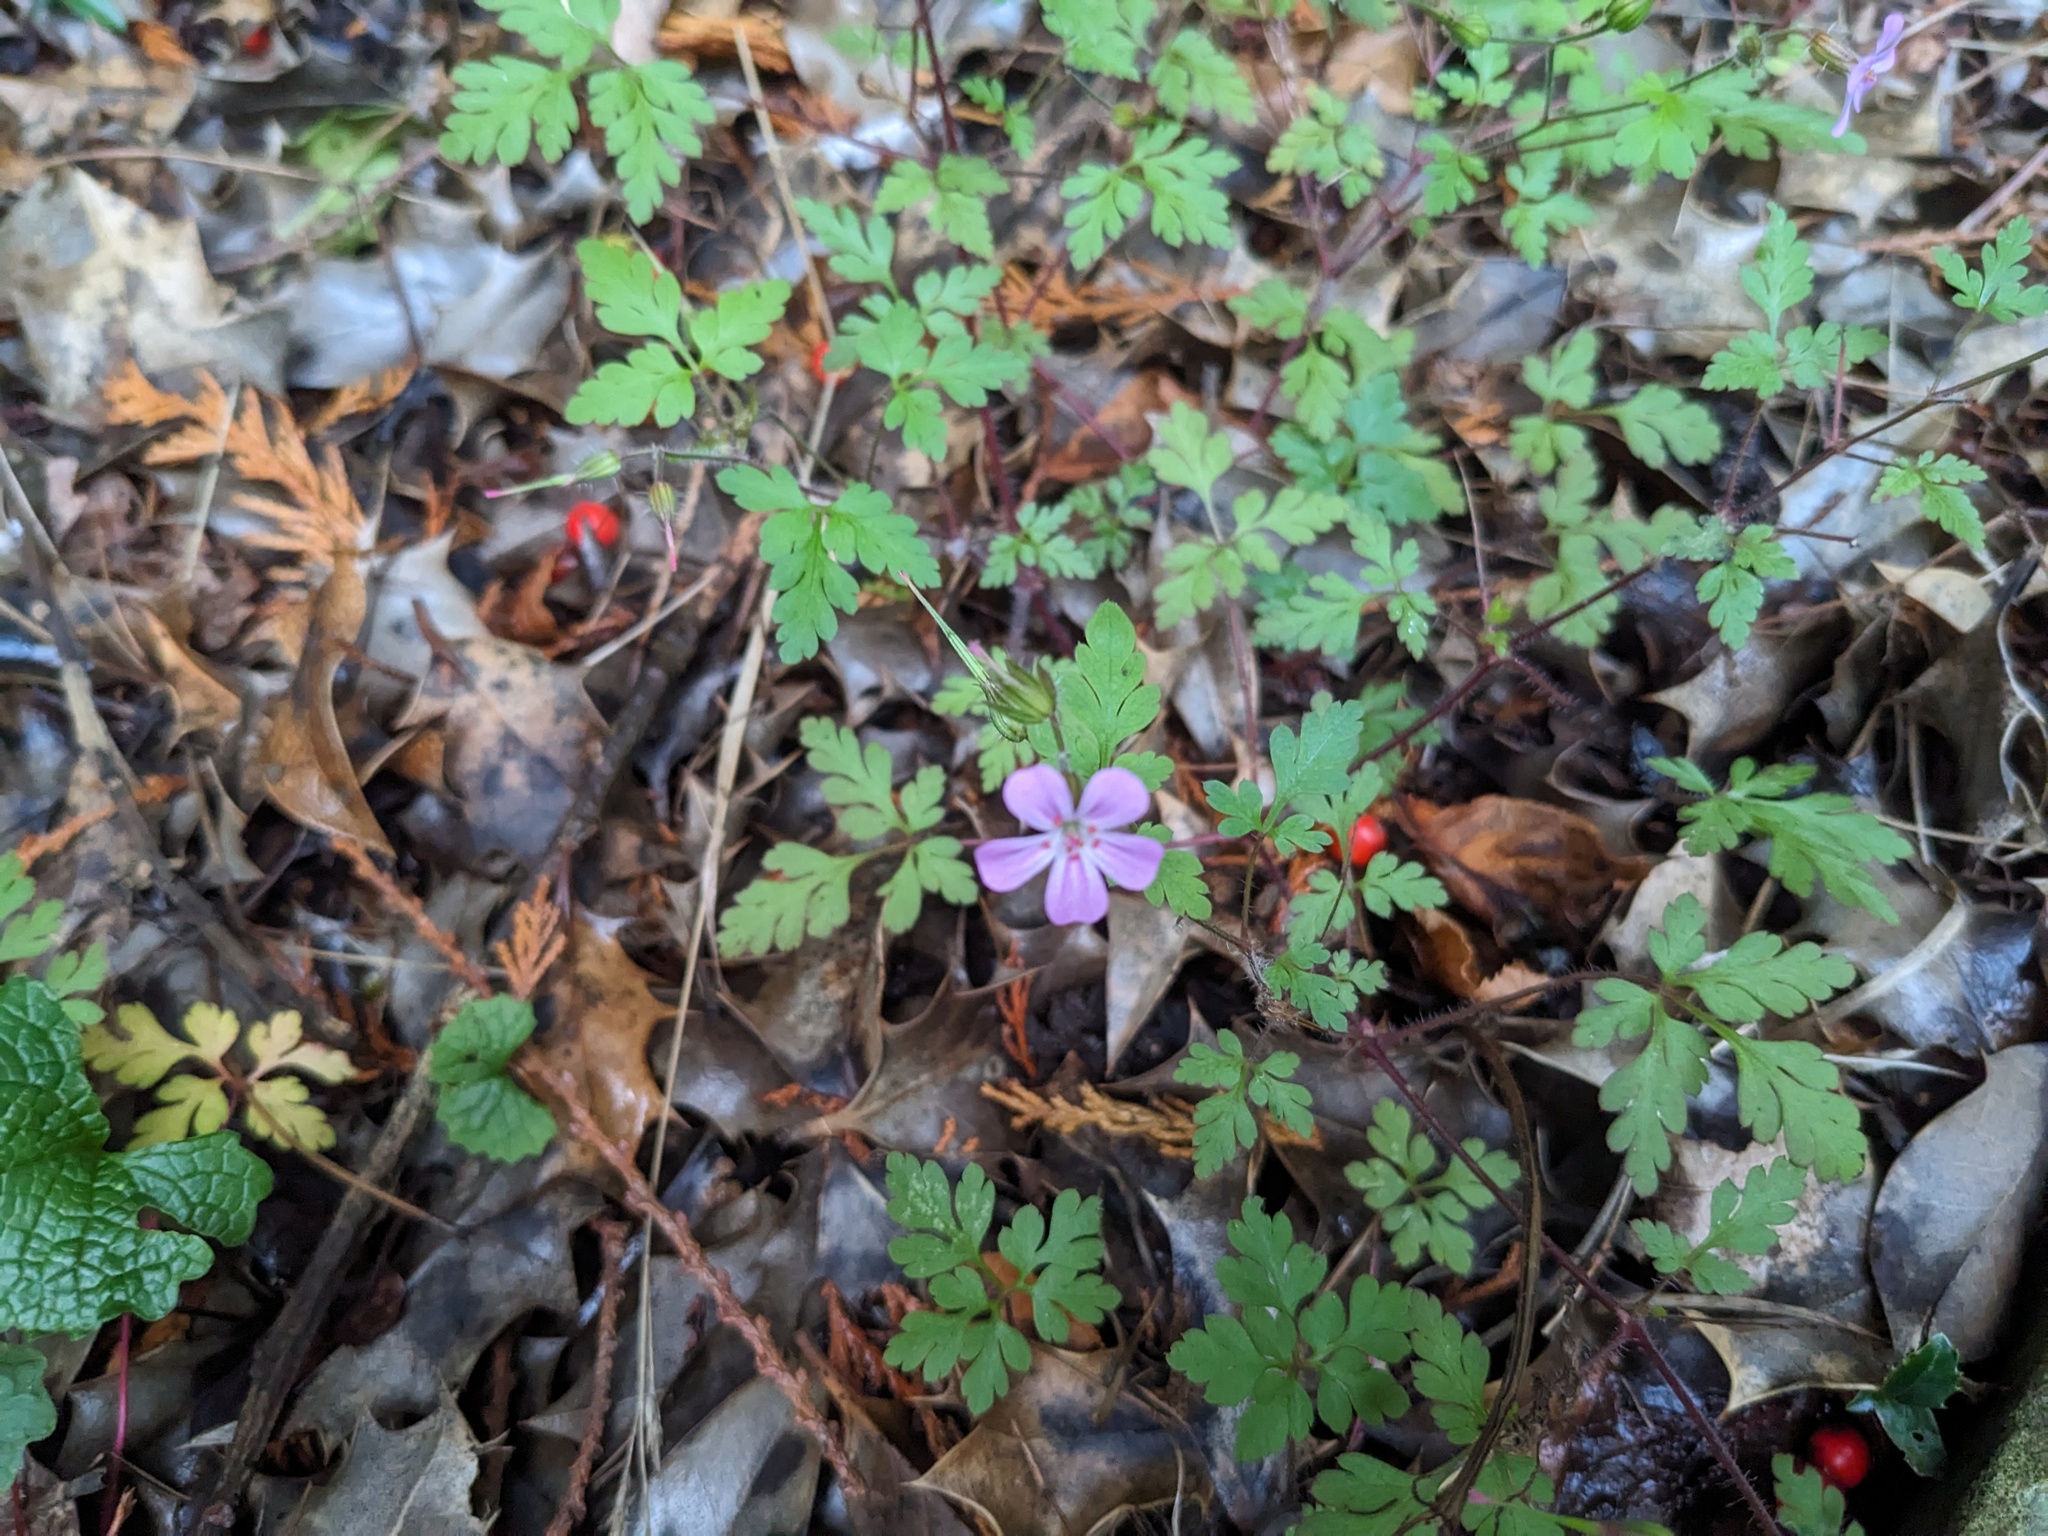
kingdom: Plantae
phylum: Tracheophyta
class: Magnoliopsida
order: Geraniales
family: Geraniaceae
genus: Geranium
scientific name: Geranium robertianum
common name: Herb-robert
